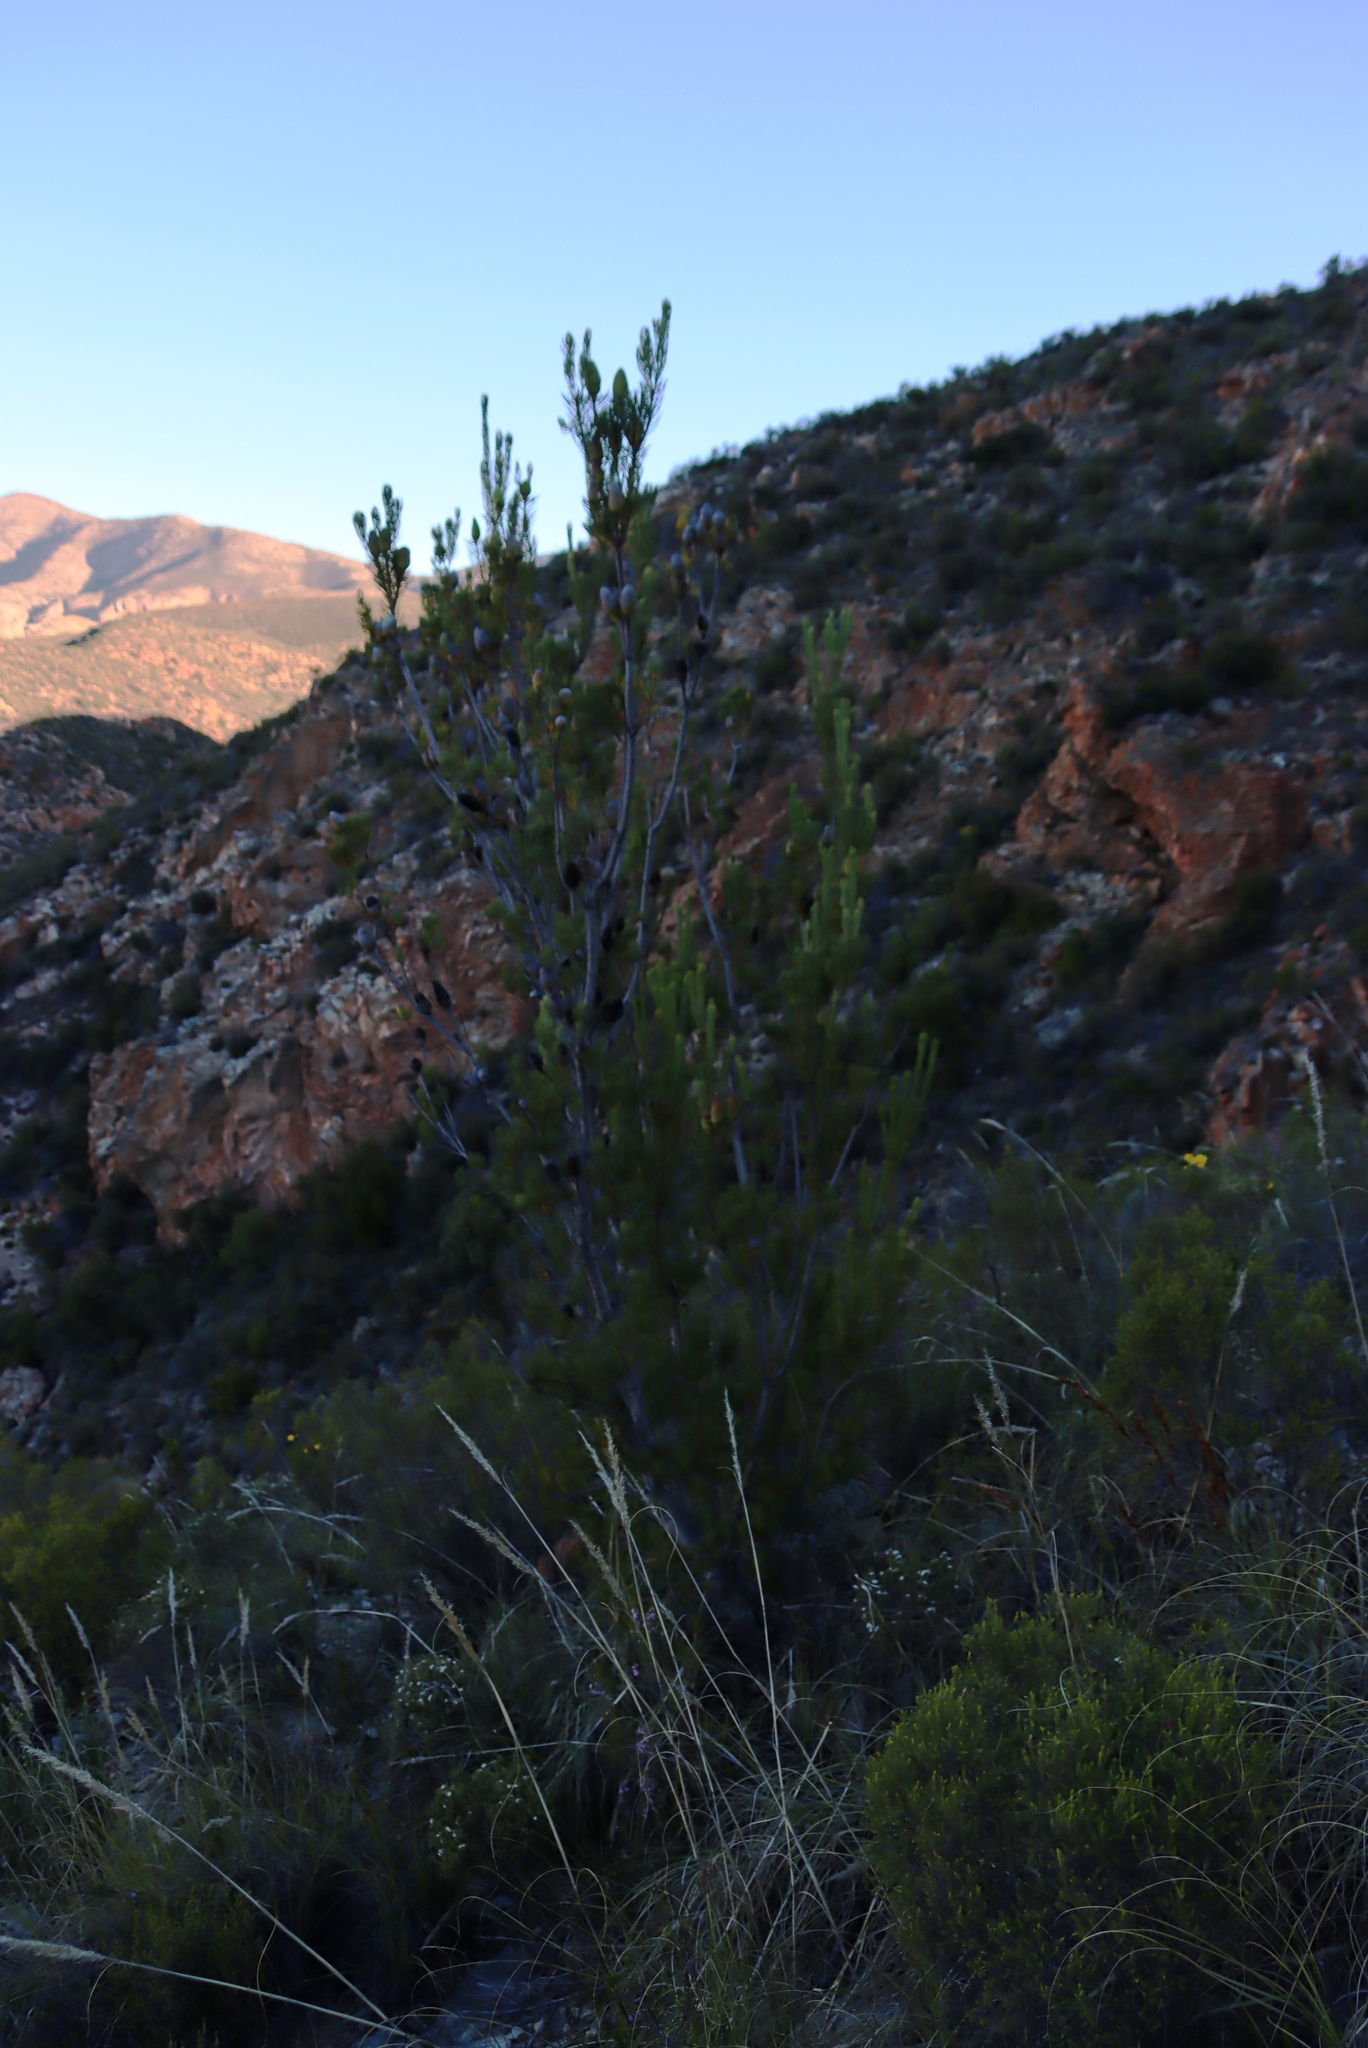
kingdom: Plantae
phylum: Tracheophyta
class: Magnoliopsida
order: Proteales
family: Proteaceae
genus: Leucadendron
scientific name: Leucadendron nobile
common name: Karoo conebush
